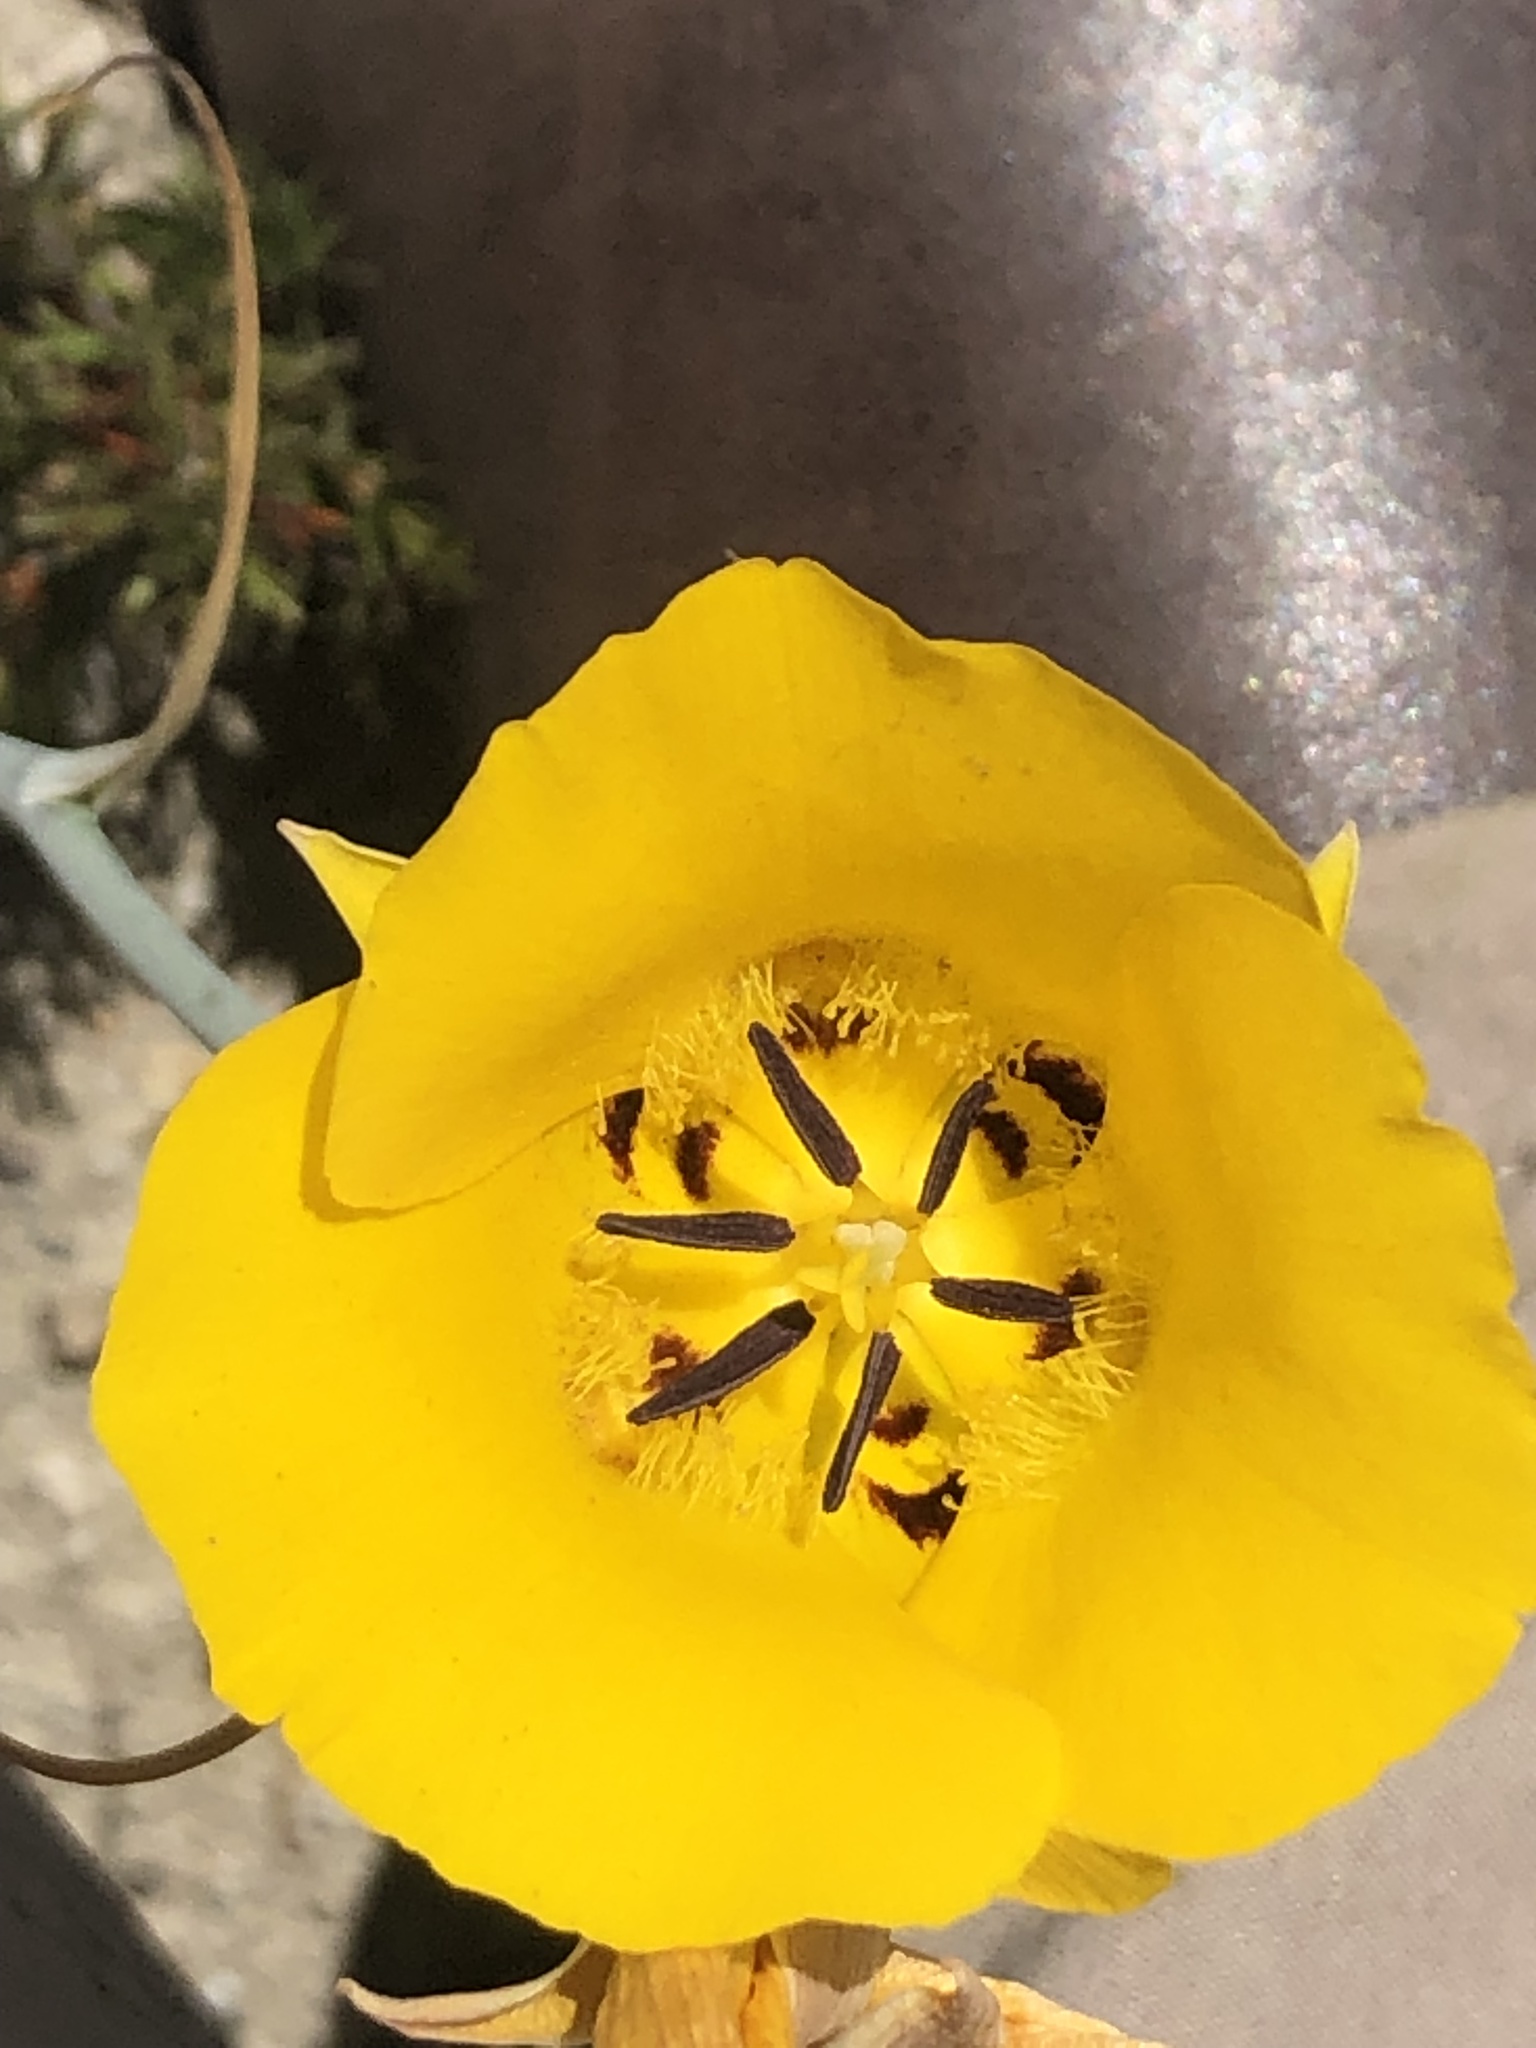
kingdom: Plantae
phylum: Tracheophyta
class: Liliopsida
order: Liliales
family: Liliaceae
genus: Calochortus
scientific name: Calochortus clavatus
